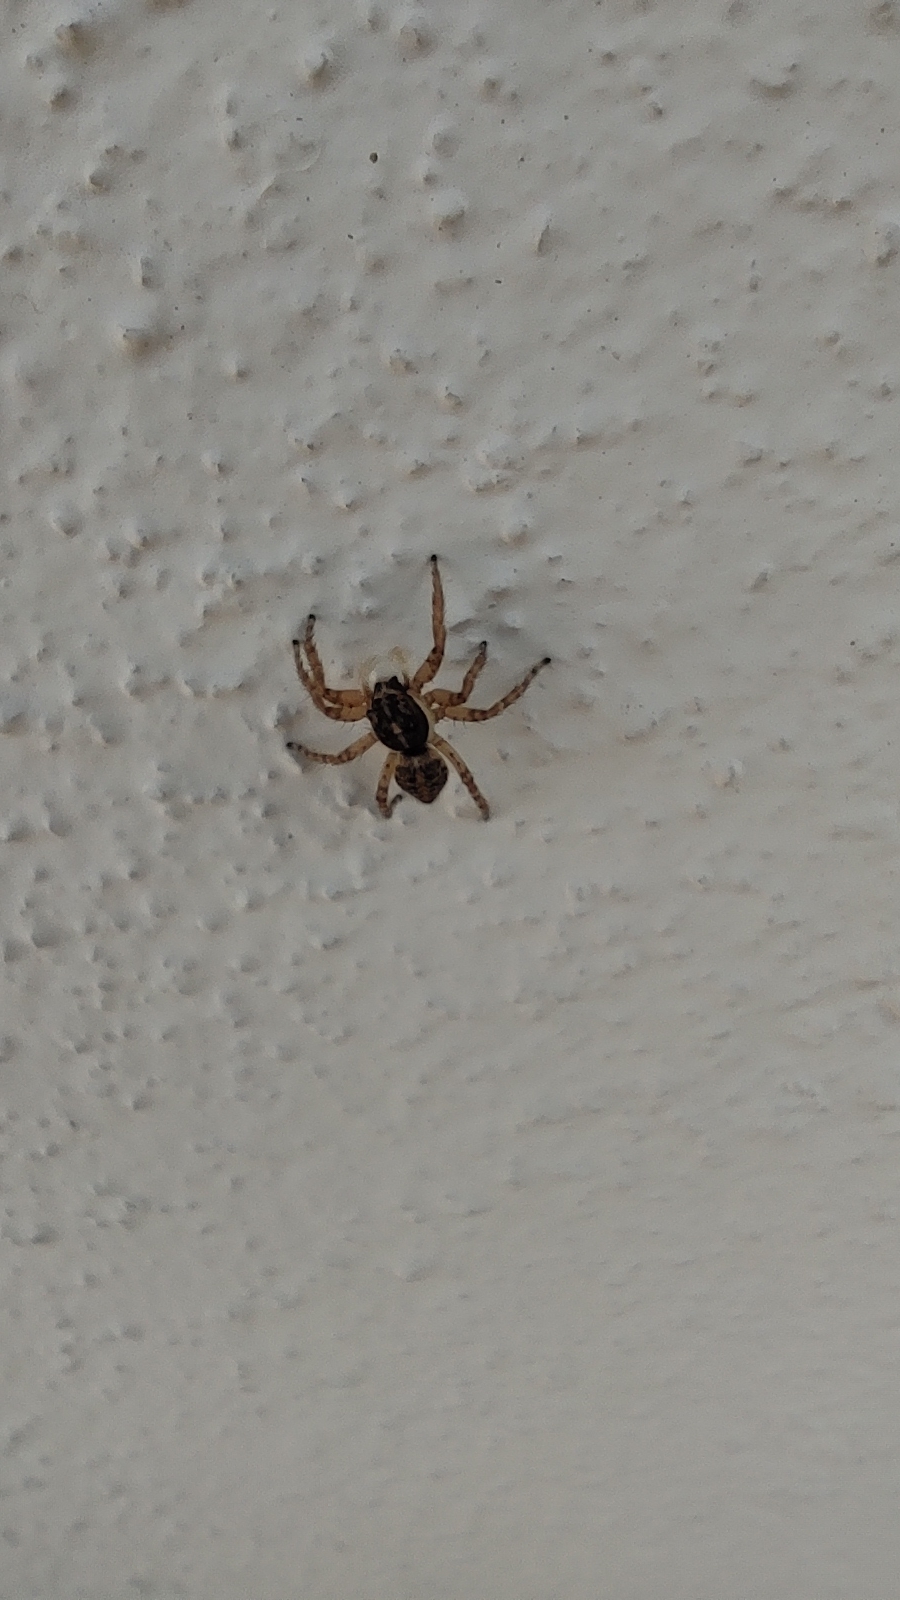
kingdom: Animalia
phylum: Arthropoda
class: Arachnida
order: Araneae
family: Salticidae
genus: Menemerus
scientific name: Menemerus semilimbatus
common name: Jumping spider
